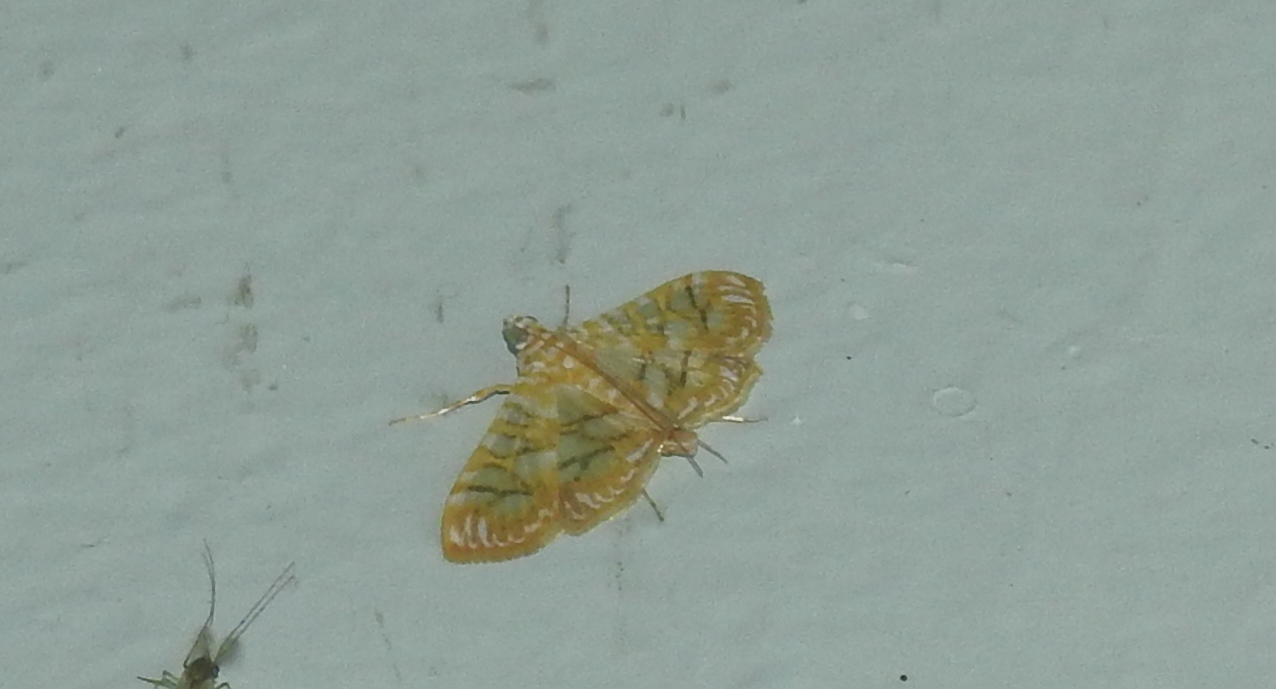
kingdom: Animalia
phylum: Arthropoda
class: Insecta
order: Lepidoptera
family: Crambidae
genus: Synclera
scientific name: Synclera traducalis
